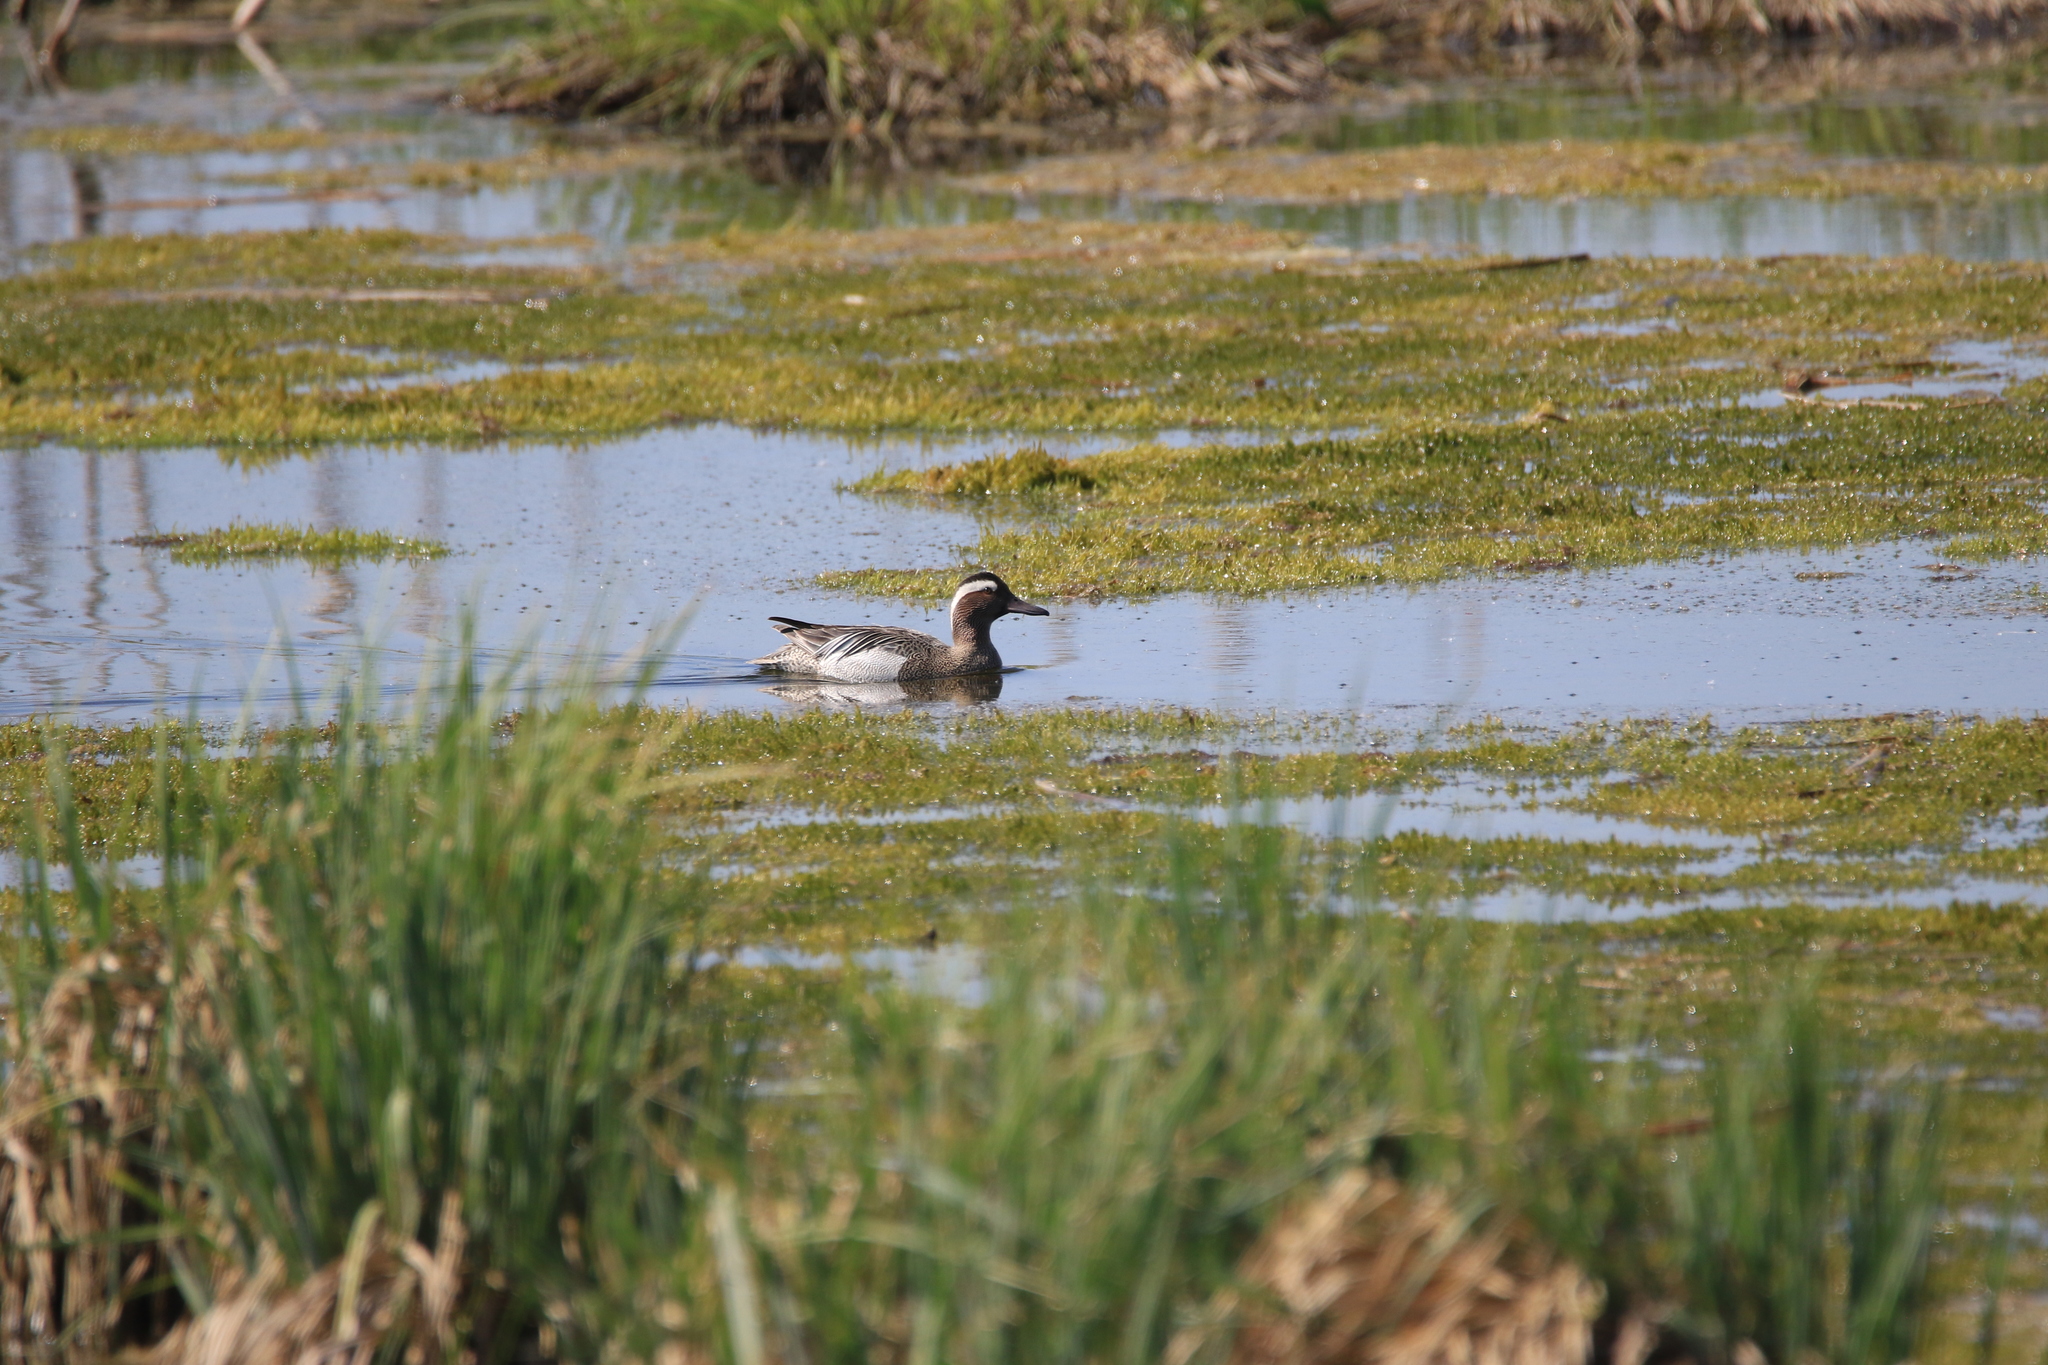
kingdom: Animalia
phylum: Chordata
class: Aves
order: Anseriformes
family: Anatidae
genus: Spatula
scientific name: Spatula querquedula
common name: Garganey
